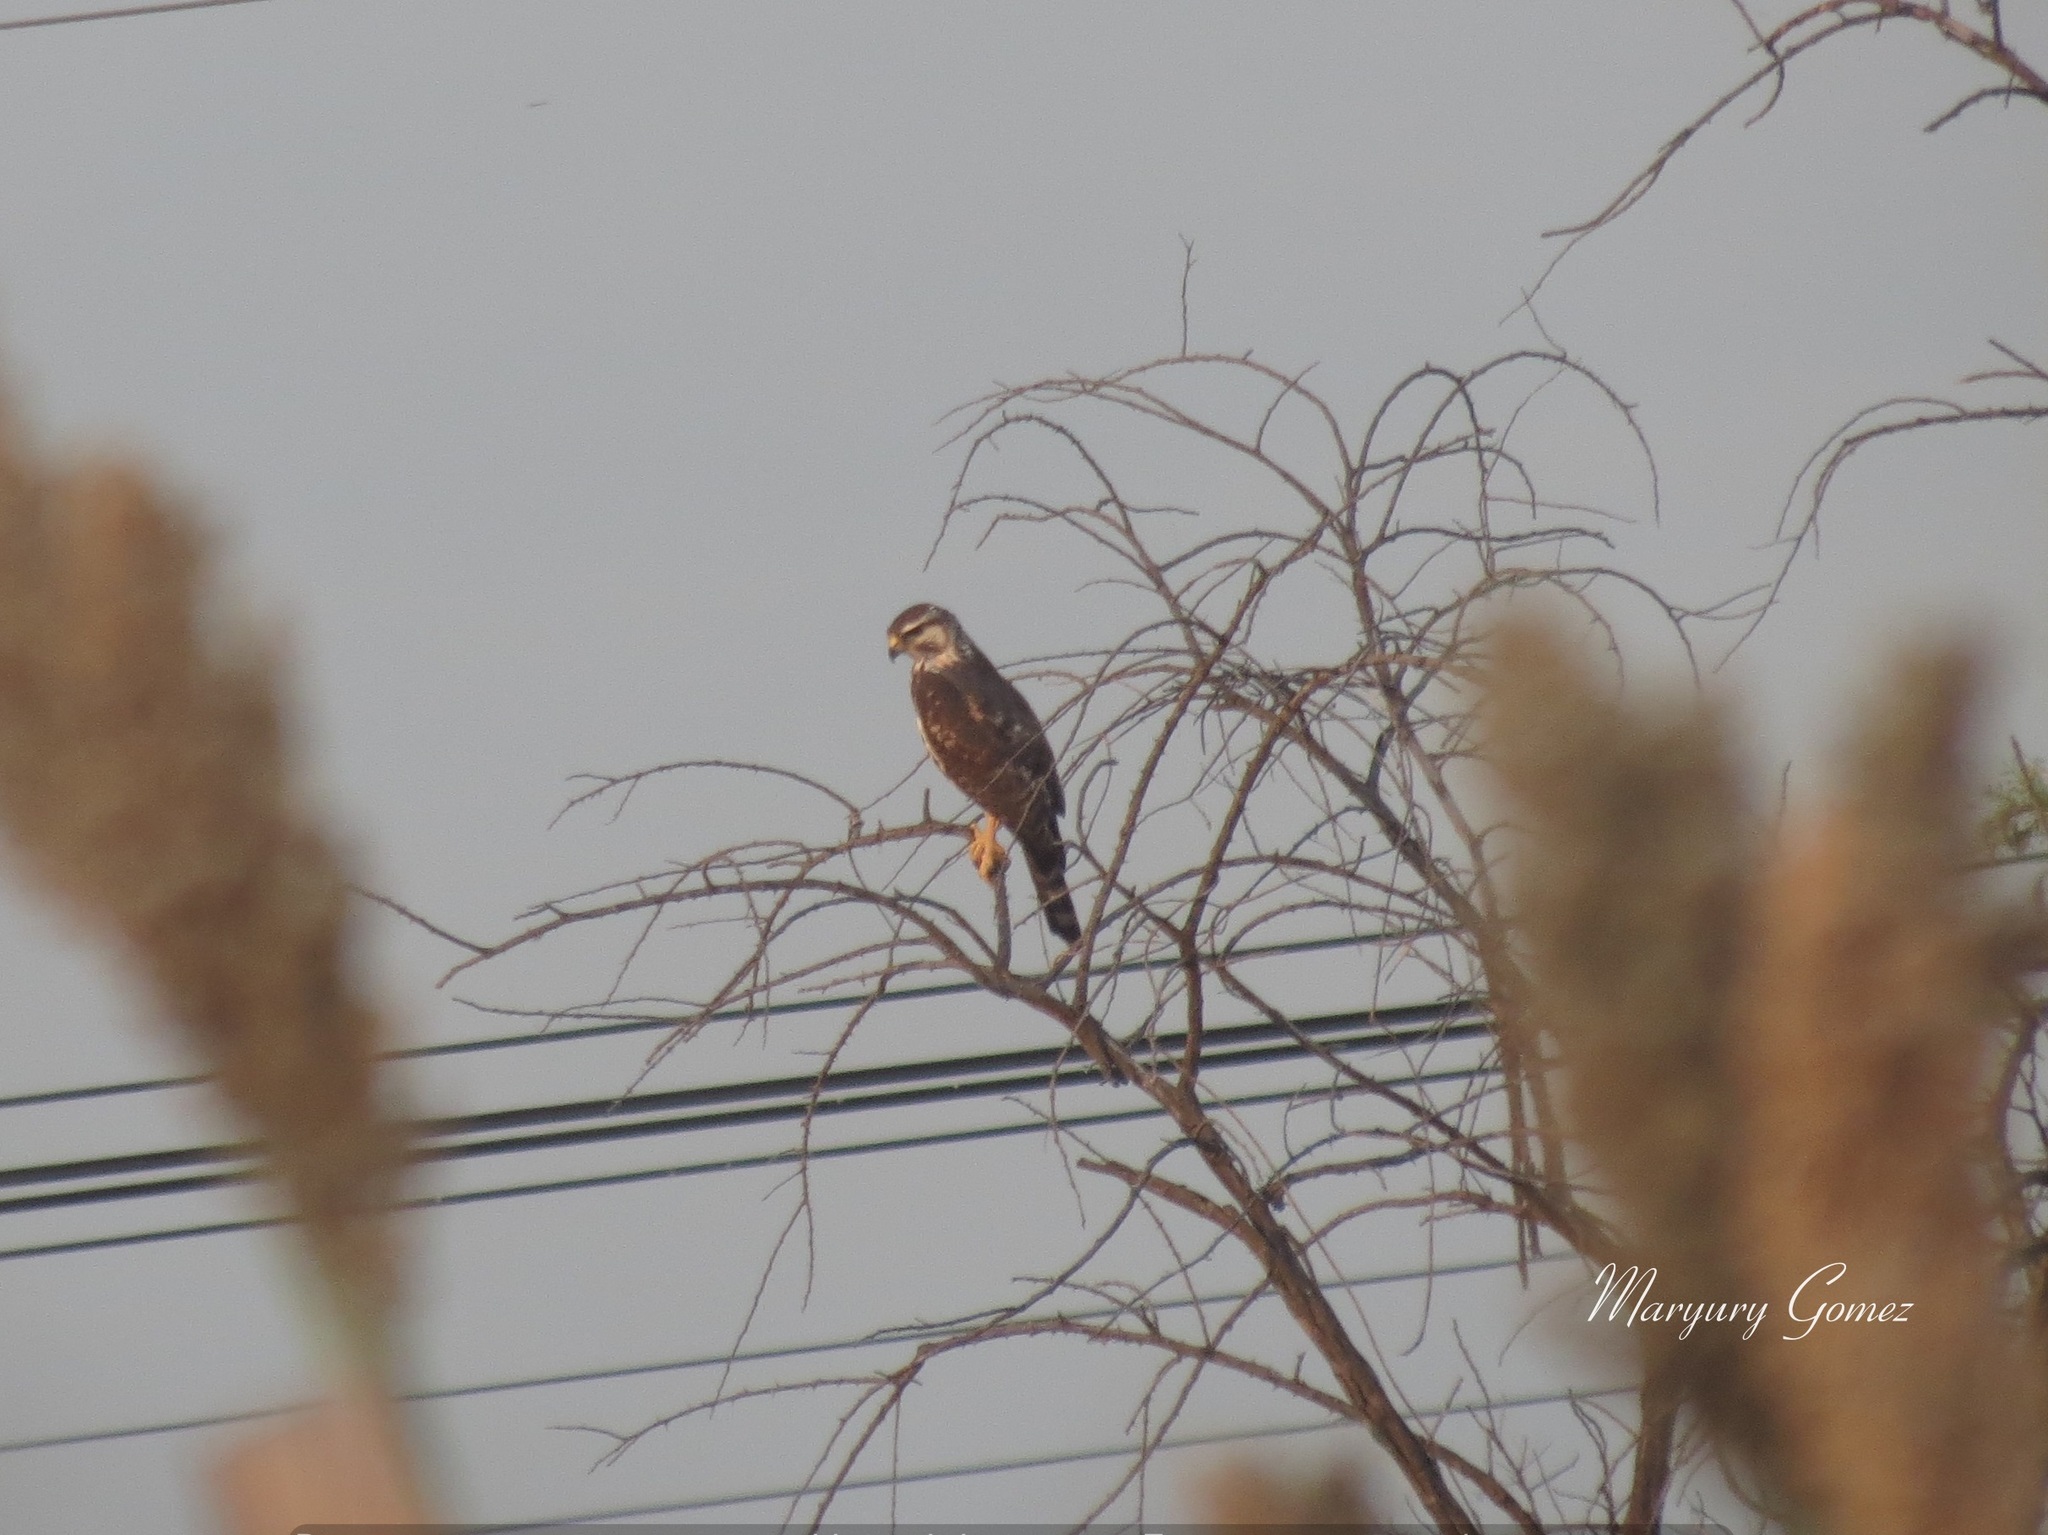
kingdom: Animalia
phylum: Chordata
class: Aves
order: Accipitriformes
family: Accipitridae
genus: Buteo
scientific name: Buteo nitidus
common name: Grey-lined hawk
